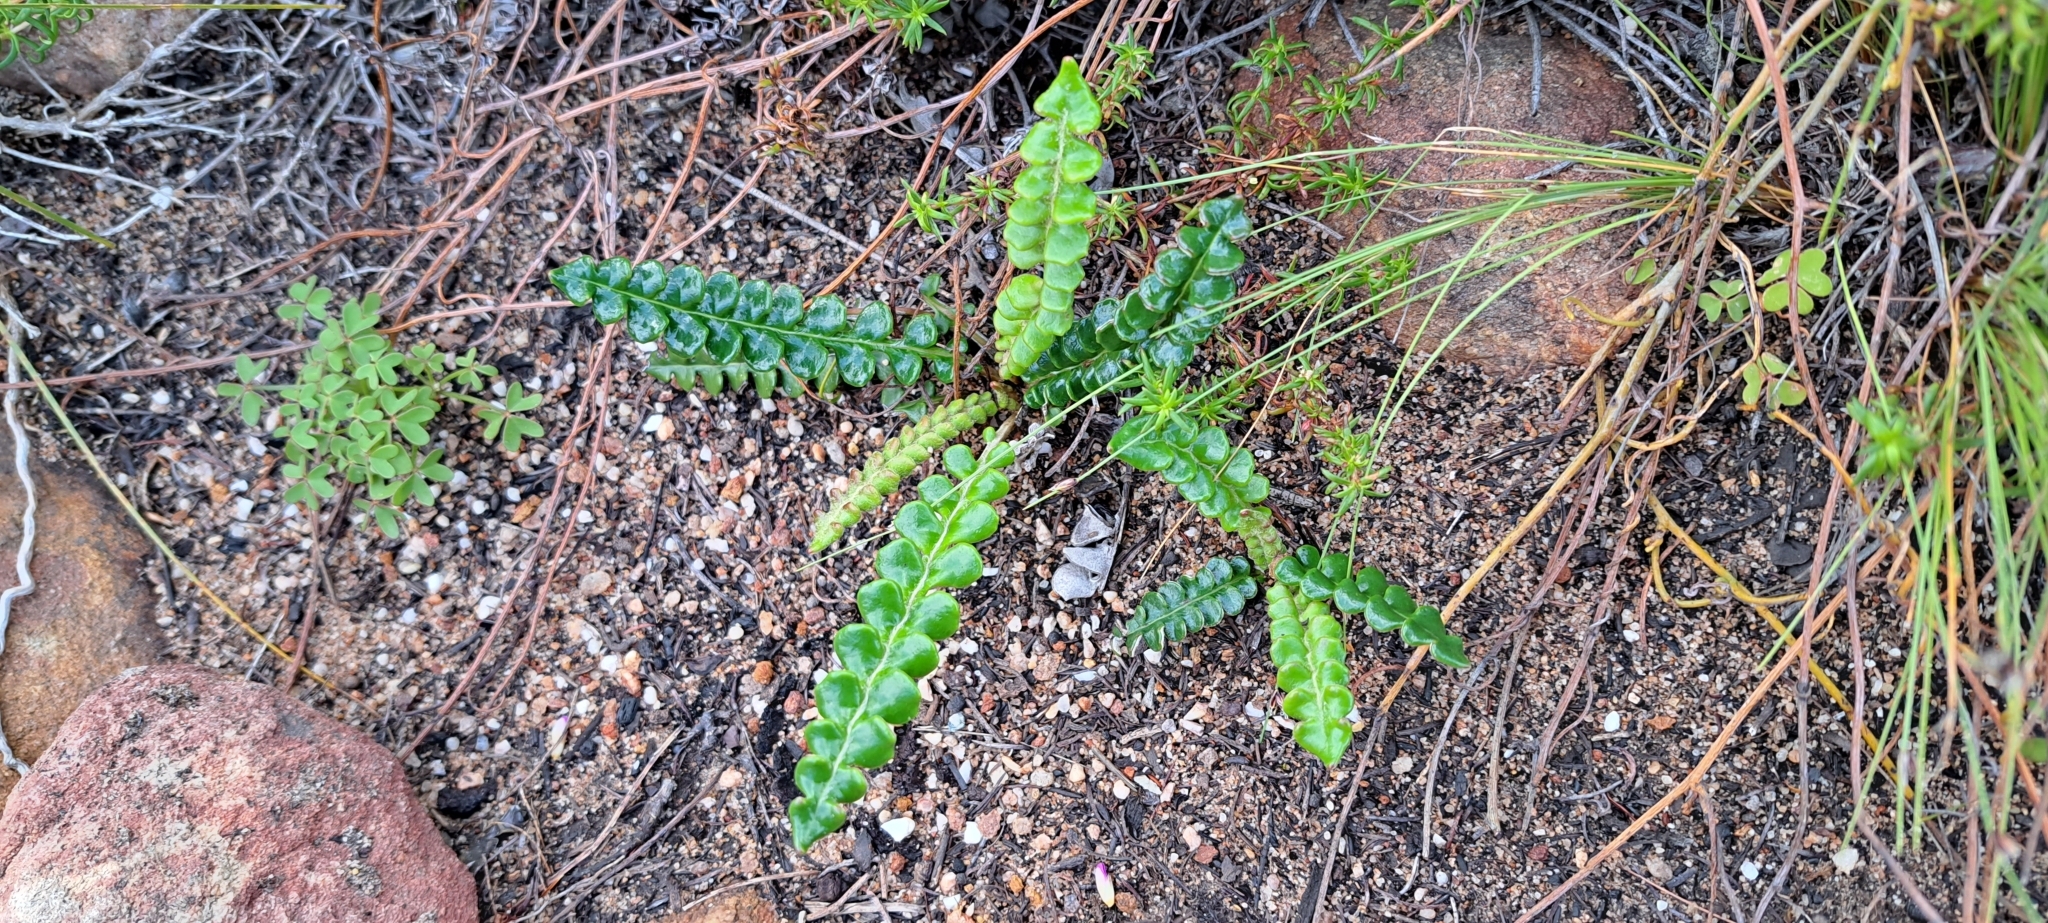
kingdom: Plantae
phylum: Tracheophyta
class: Magnoliopsida
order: Asterales
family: Asteraceae
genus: Gerbera
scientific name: Gerbera linnaei
